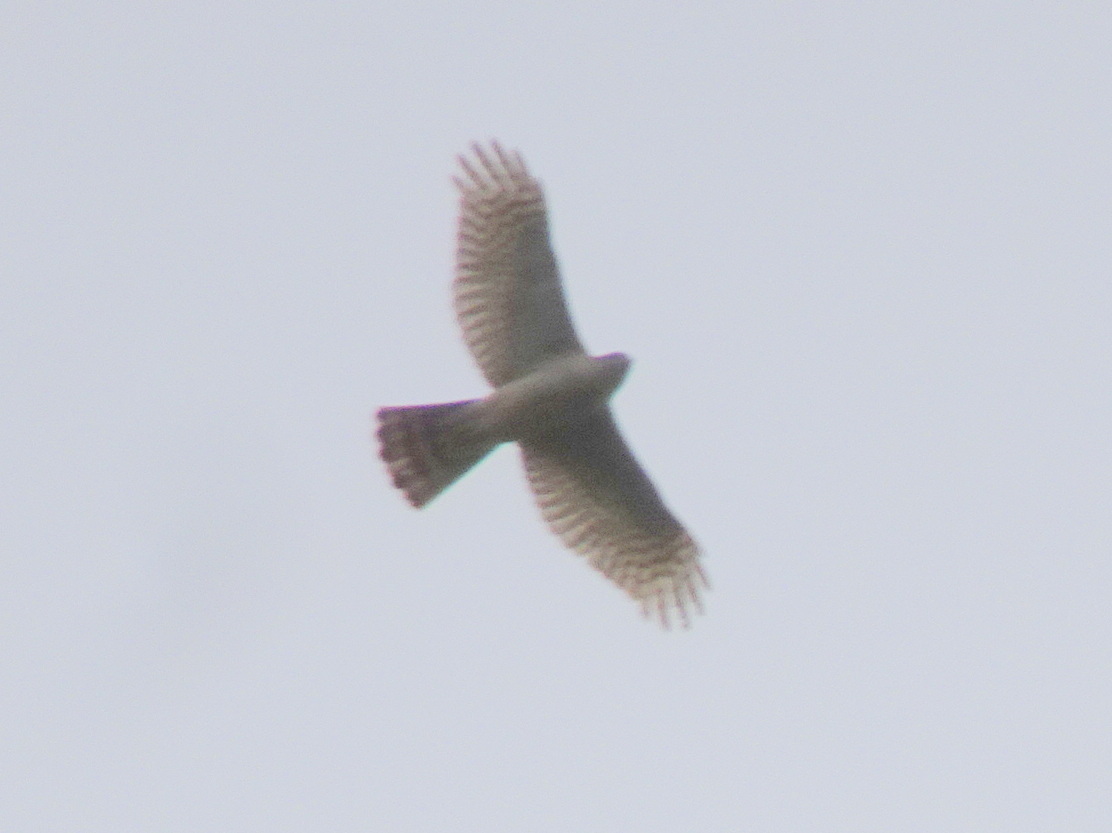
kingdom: Animalia
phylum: Chordata
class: Aves
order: Accipitriformes
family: Accipitridae
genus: Accipiter
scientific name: Accipiter nisus
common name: Eurasian sparrowhawk
